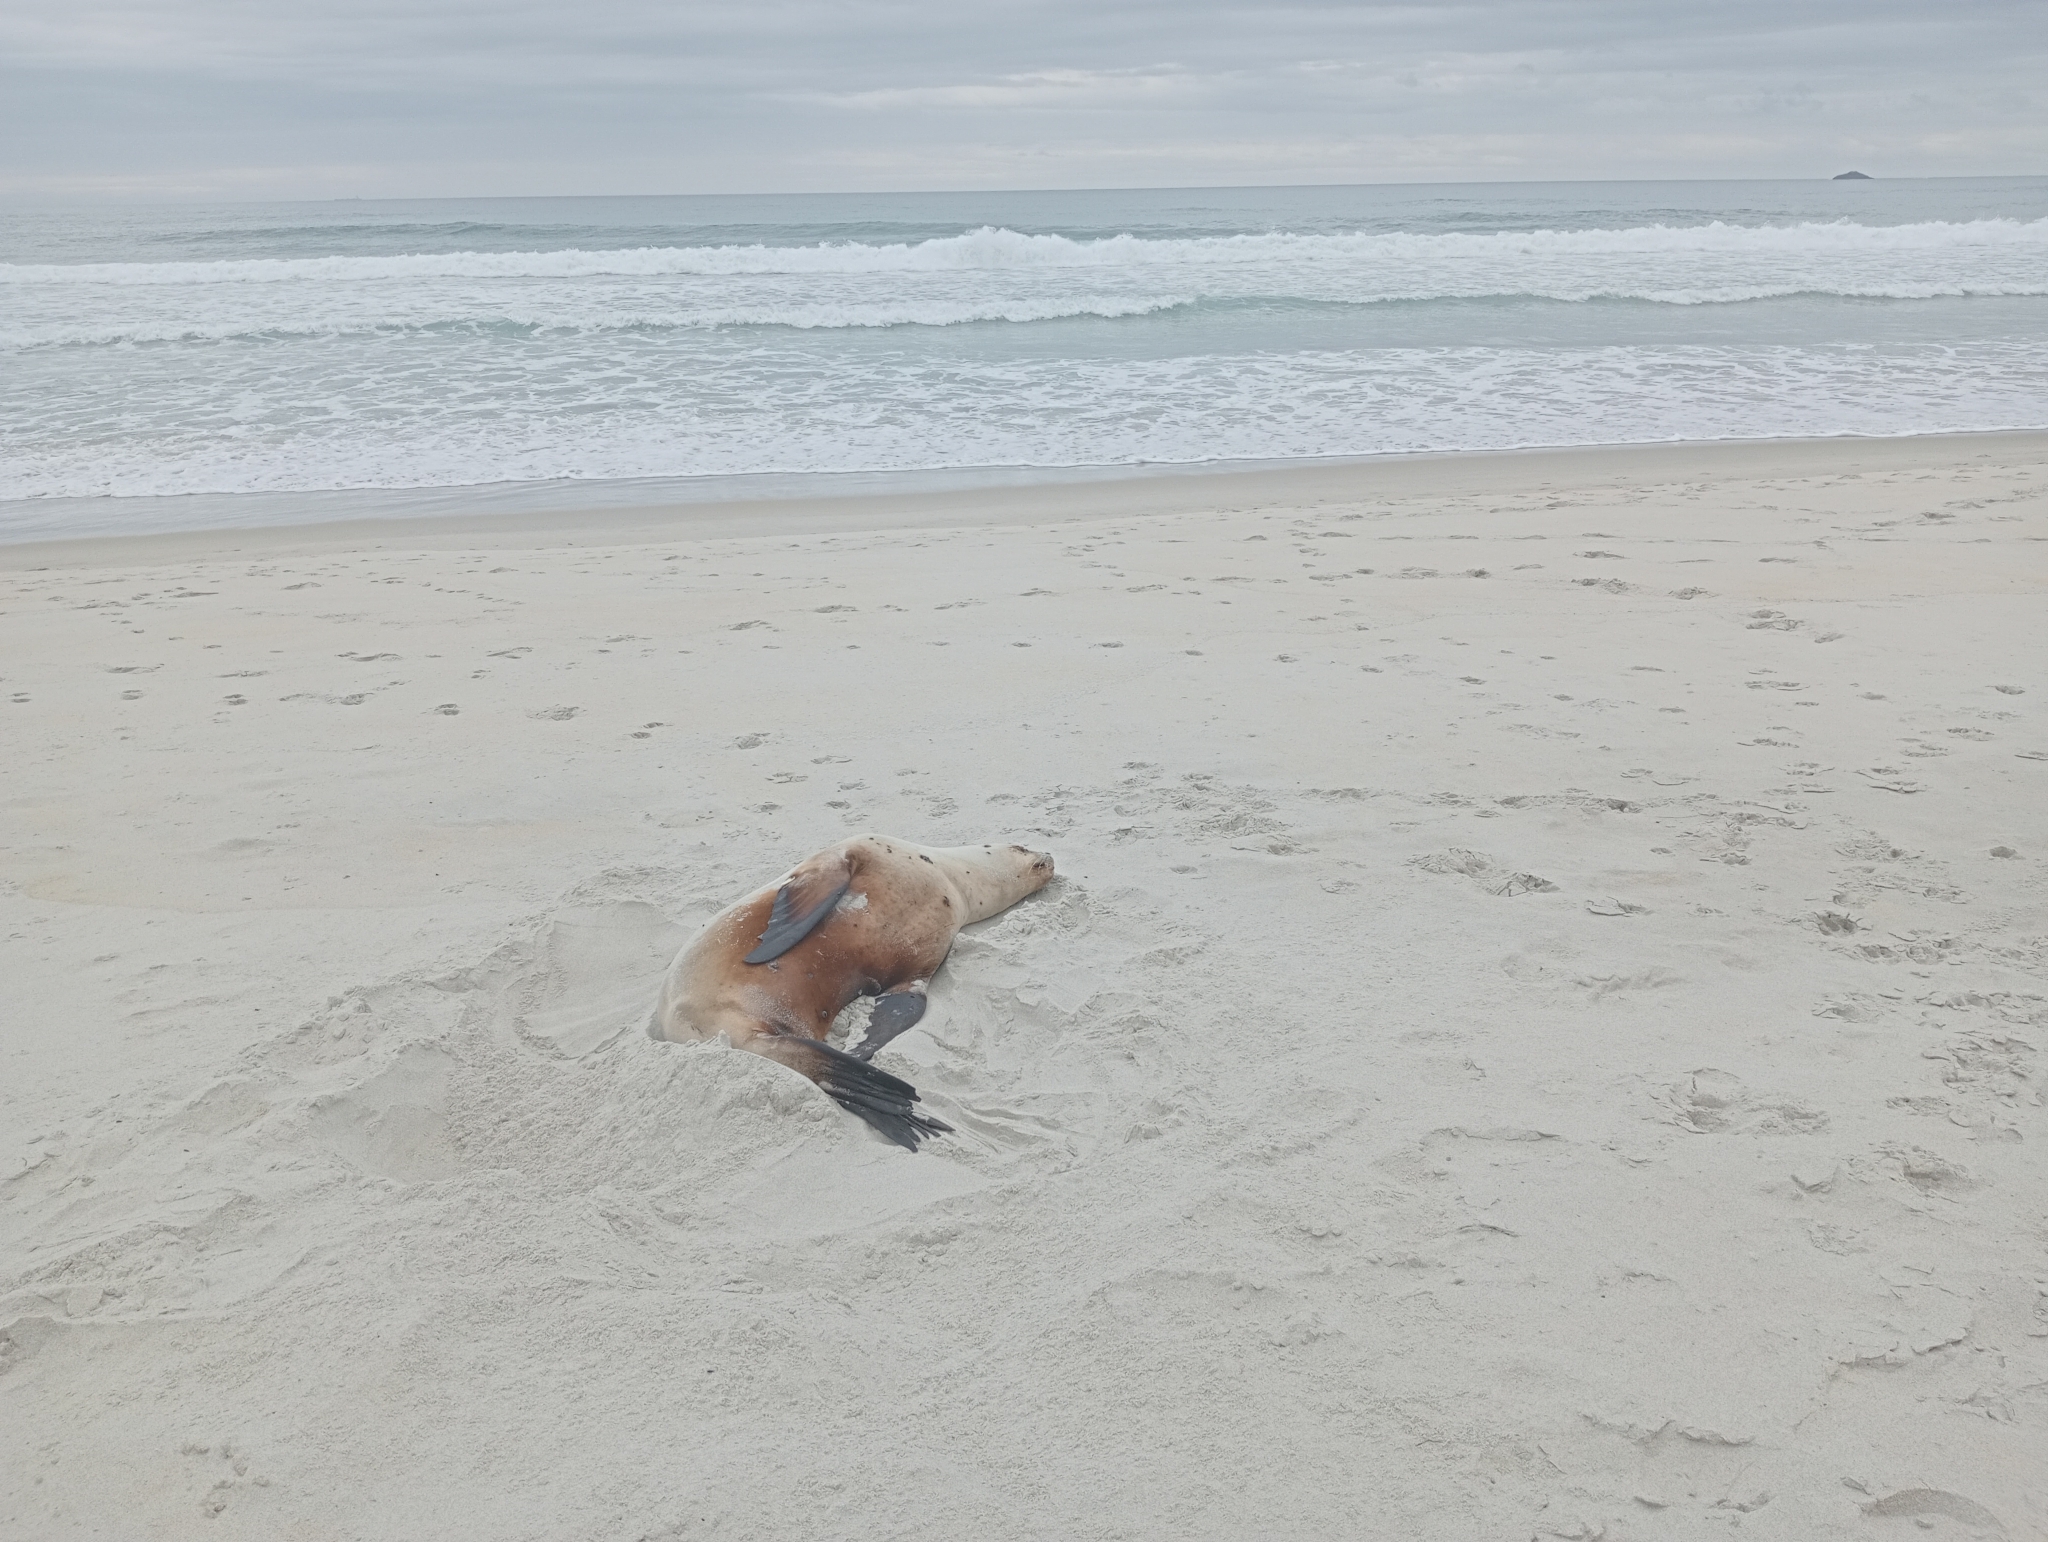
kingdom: Animalia
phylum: Chordata
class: Mammalia
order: Carnivora
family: Otariidae
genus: Phocarctos
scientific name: Phocarctos hookeri
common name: New zealand sea lion
